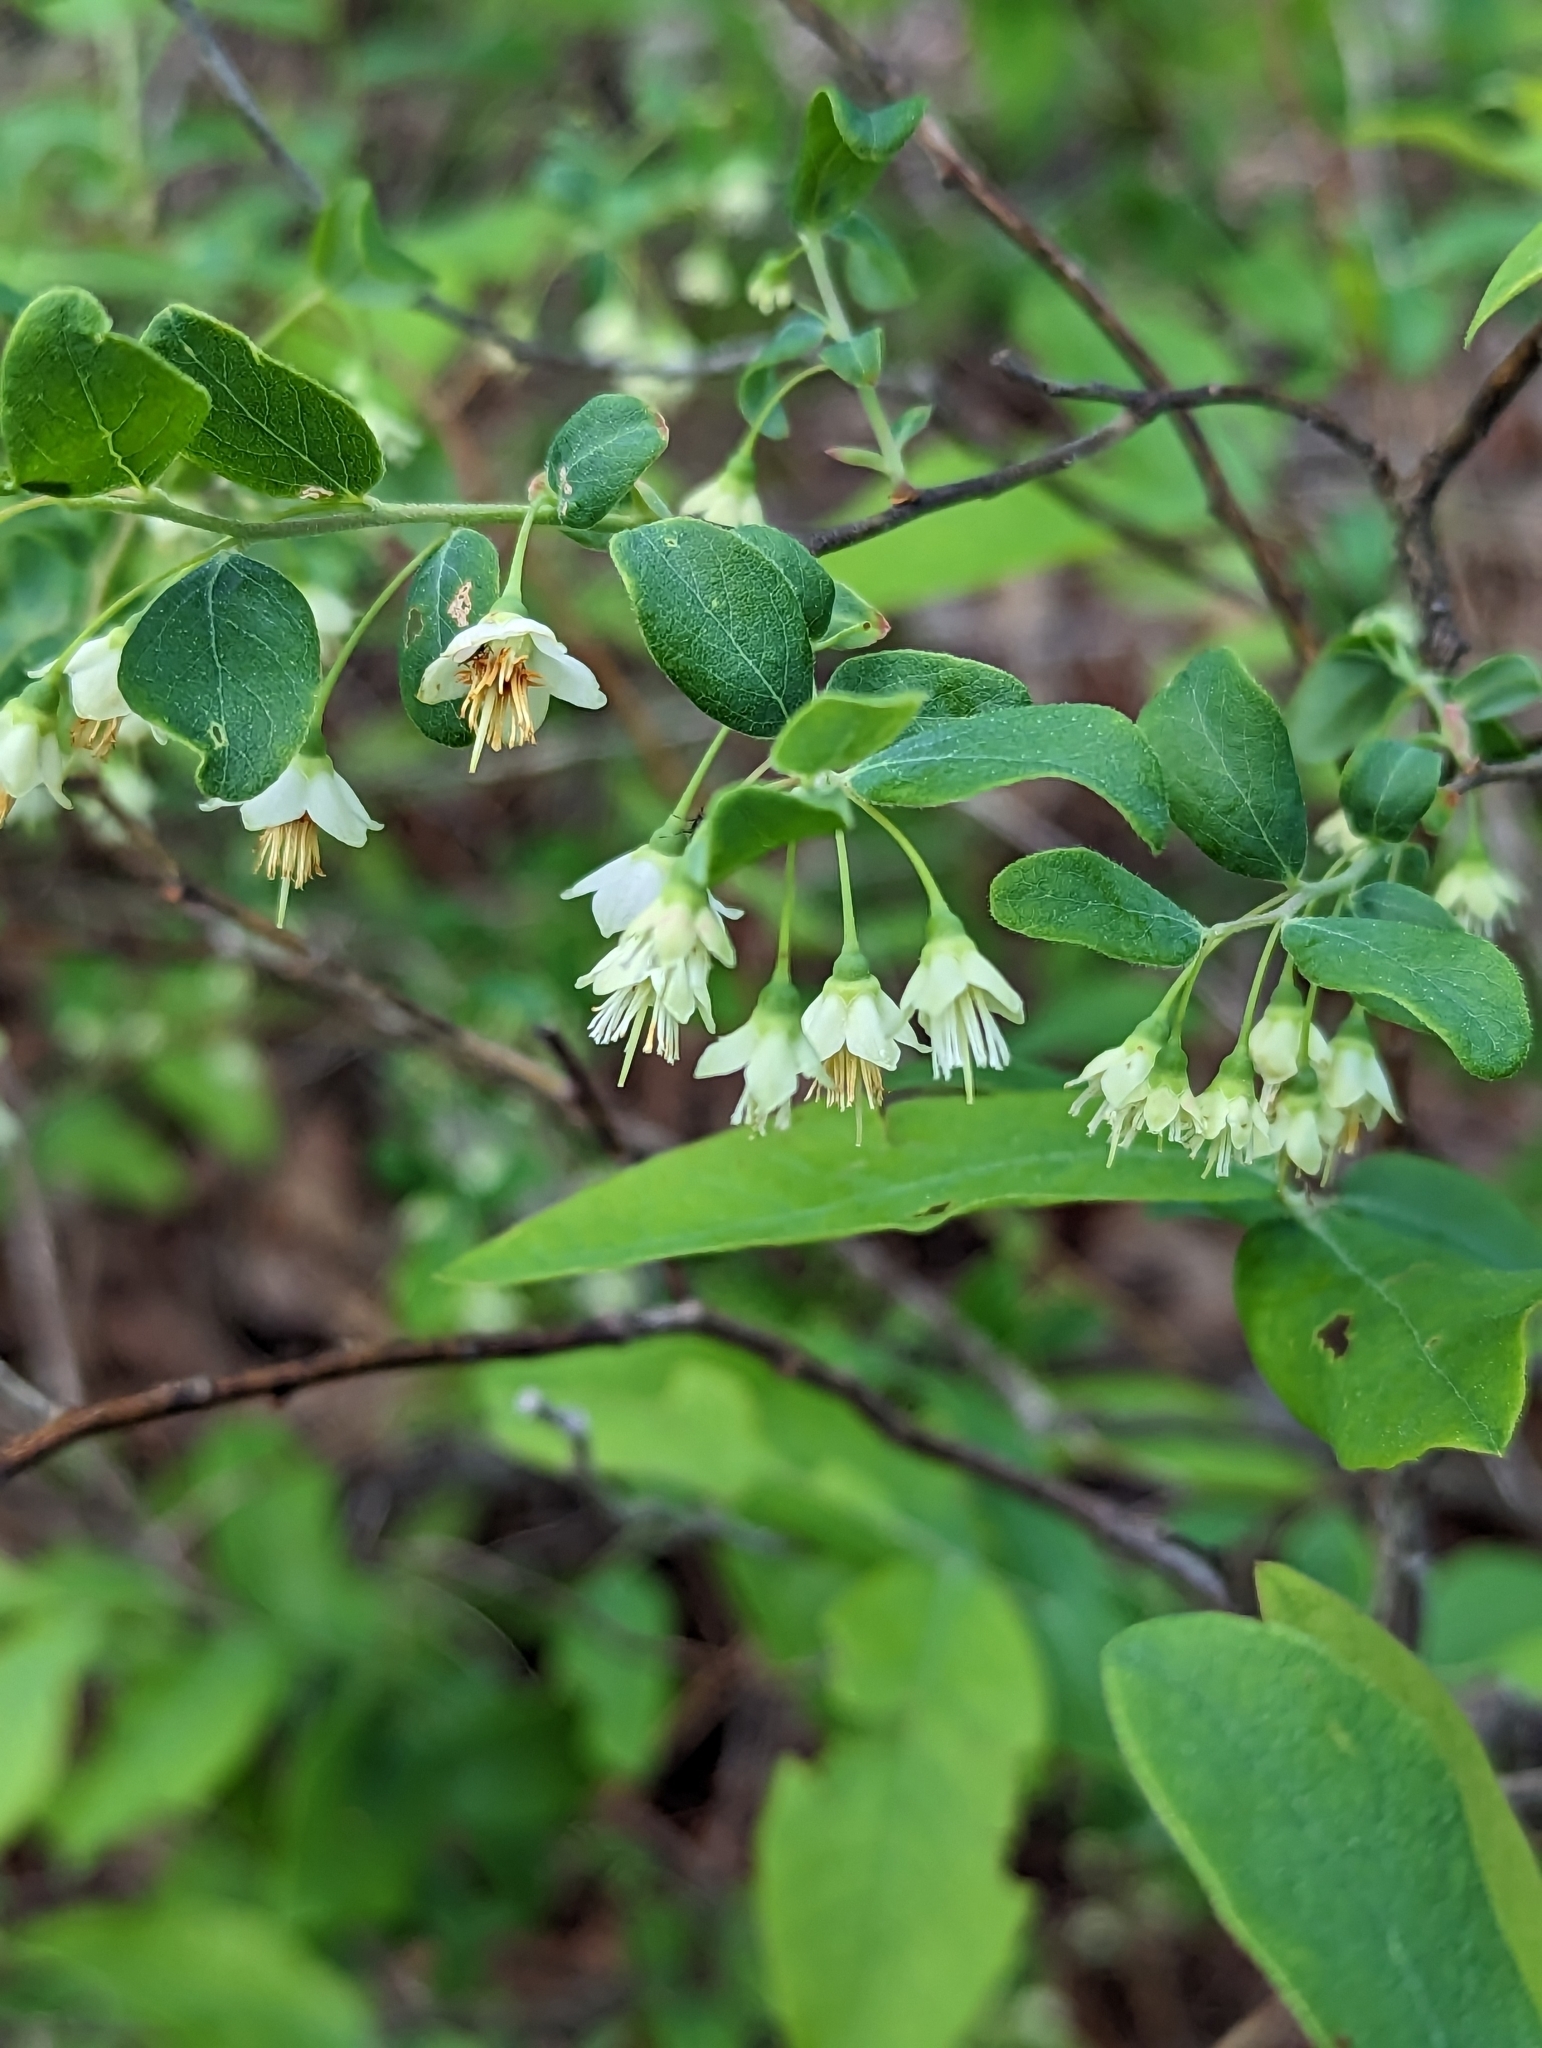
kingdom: Plantae
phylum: Tracheophyta
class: Magnoliopsida
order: Ericales
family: Ericaceae
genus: Vaccinium
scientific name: Vaccinium stamineum
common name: Deerberry
